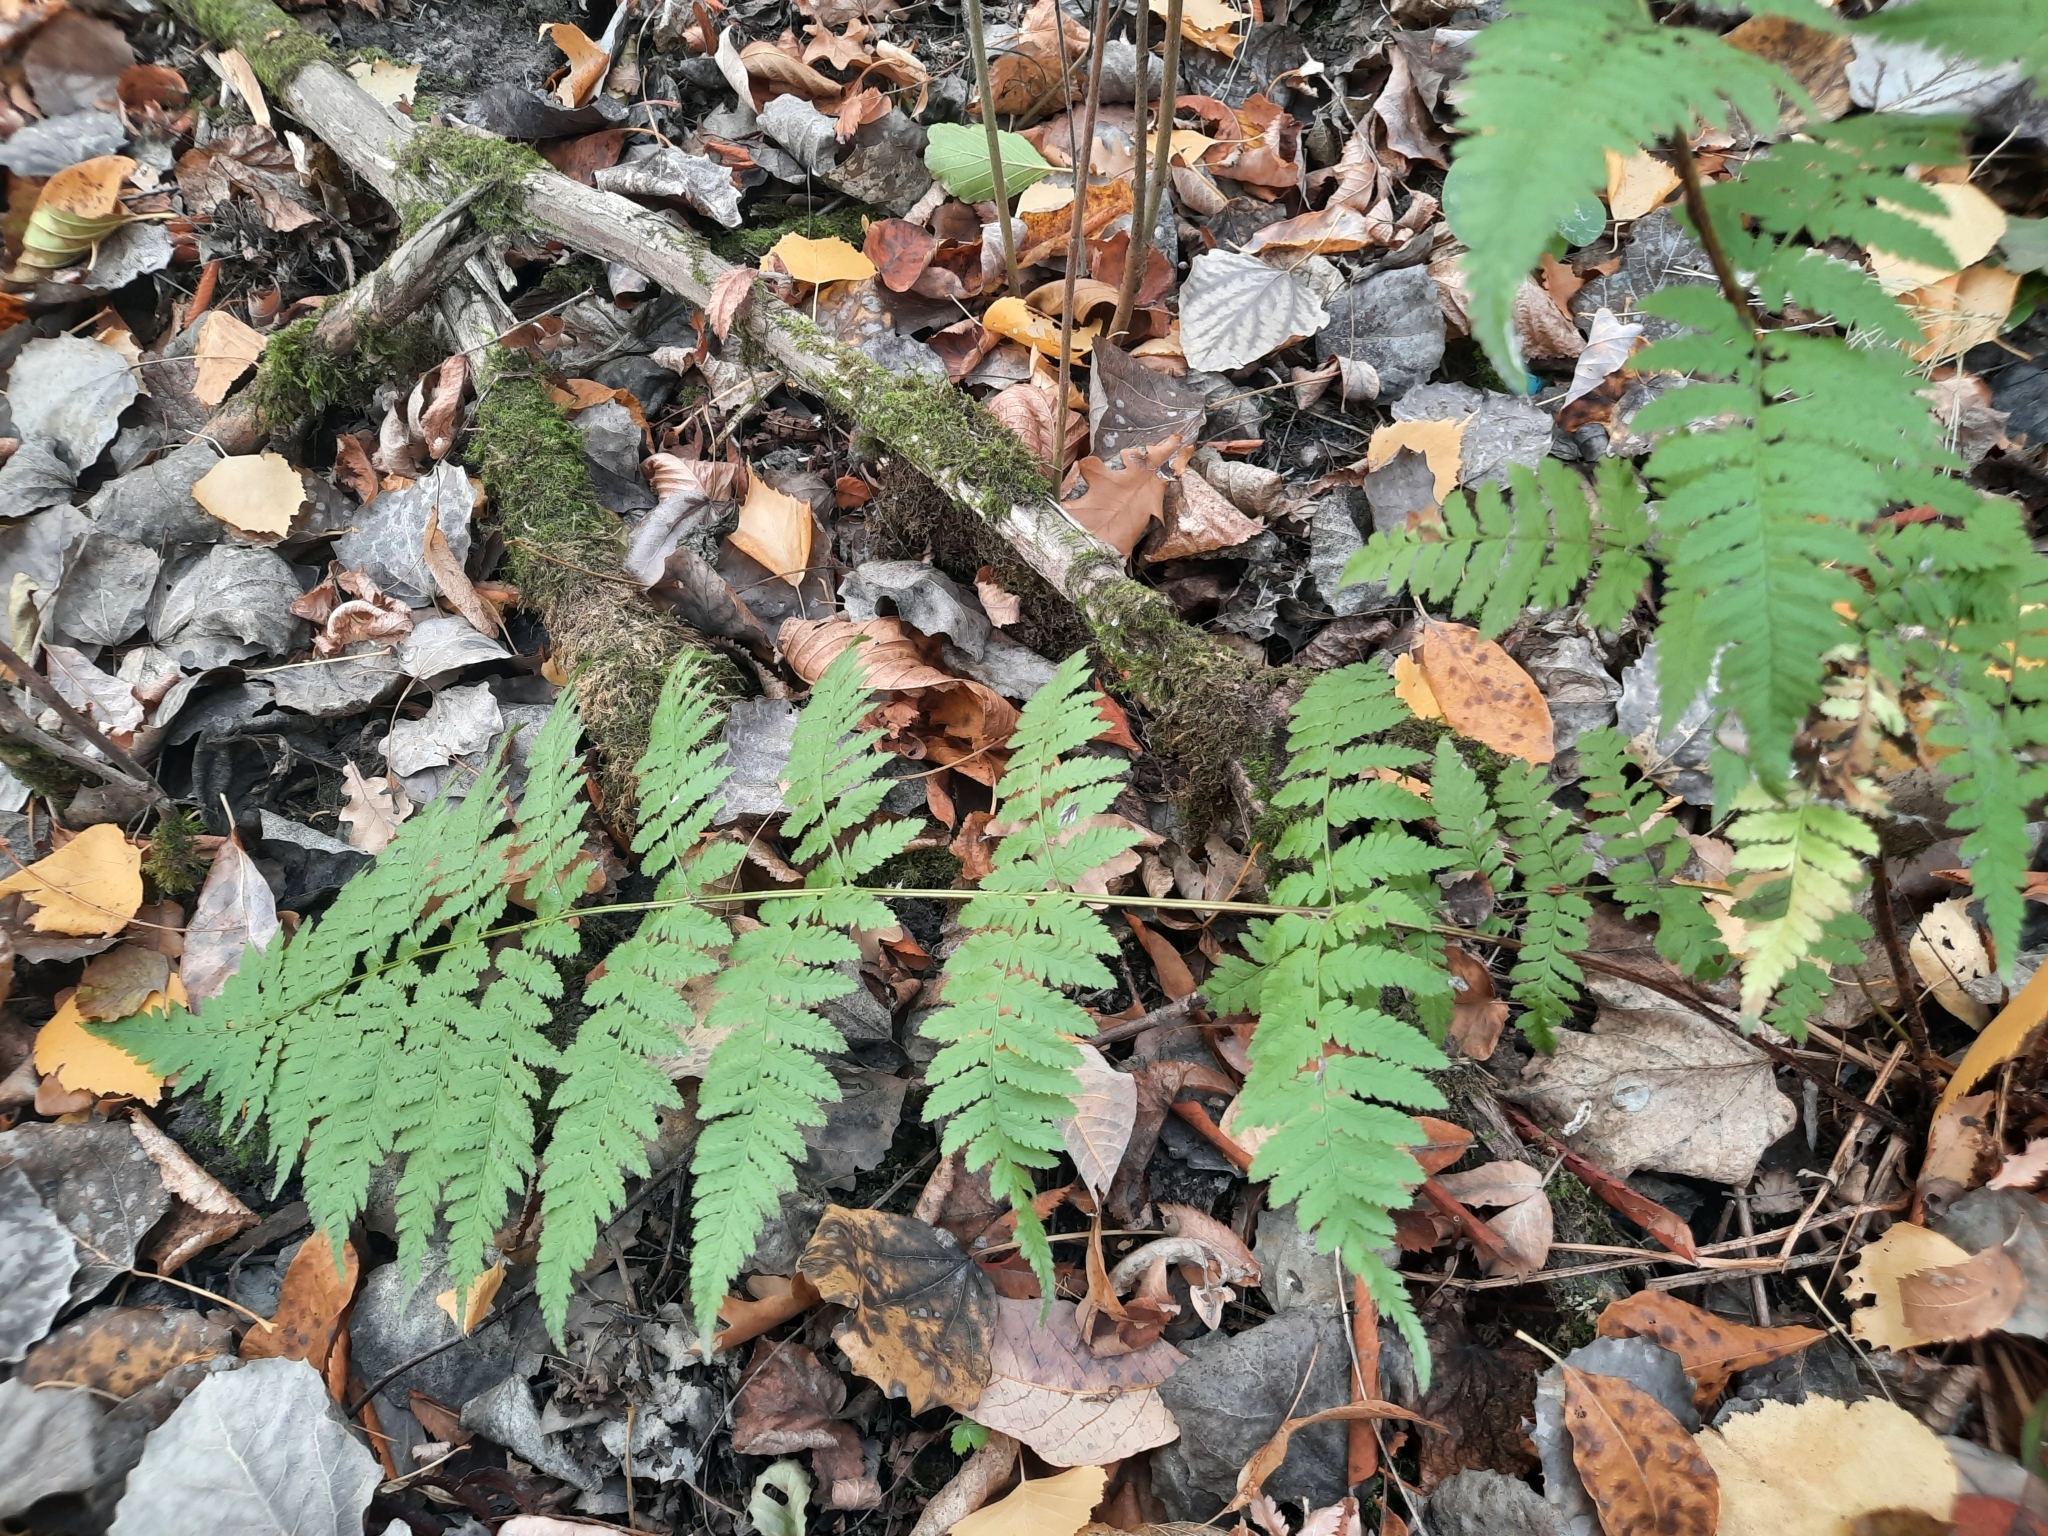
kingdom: Plantae
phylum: Tracheophyta
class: Polypodiopsida
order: Polypodiales
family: Dryopteridaceae
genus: Dryopteris
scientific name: Dryopteris carthusiana
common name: Narrow buckler-fern
